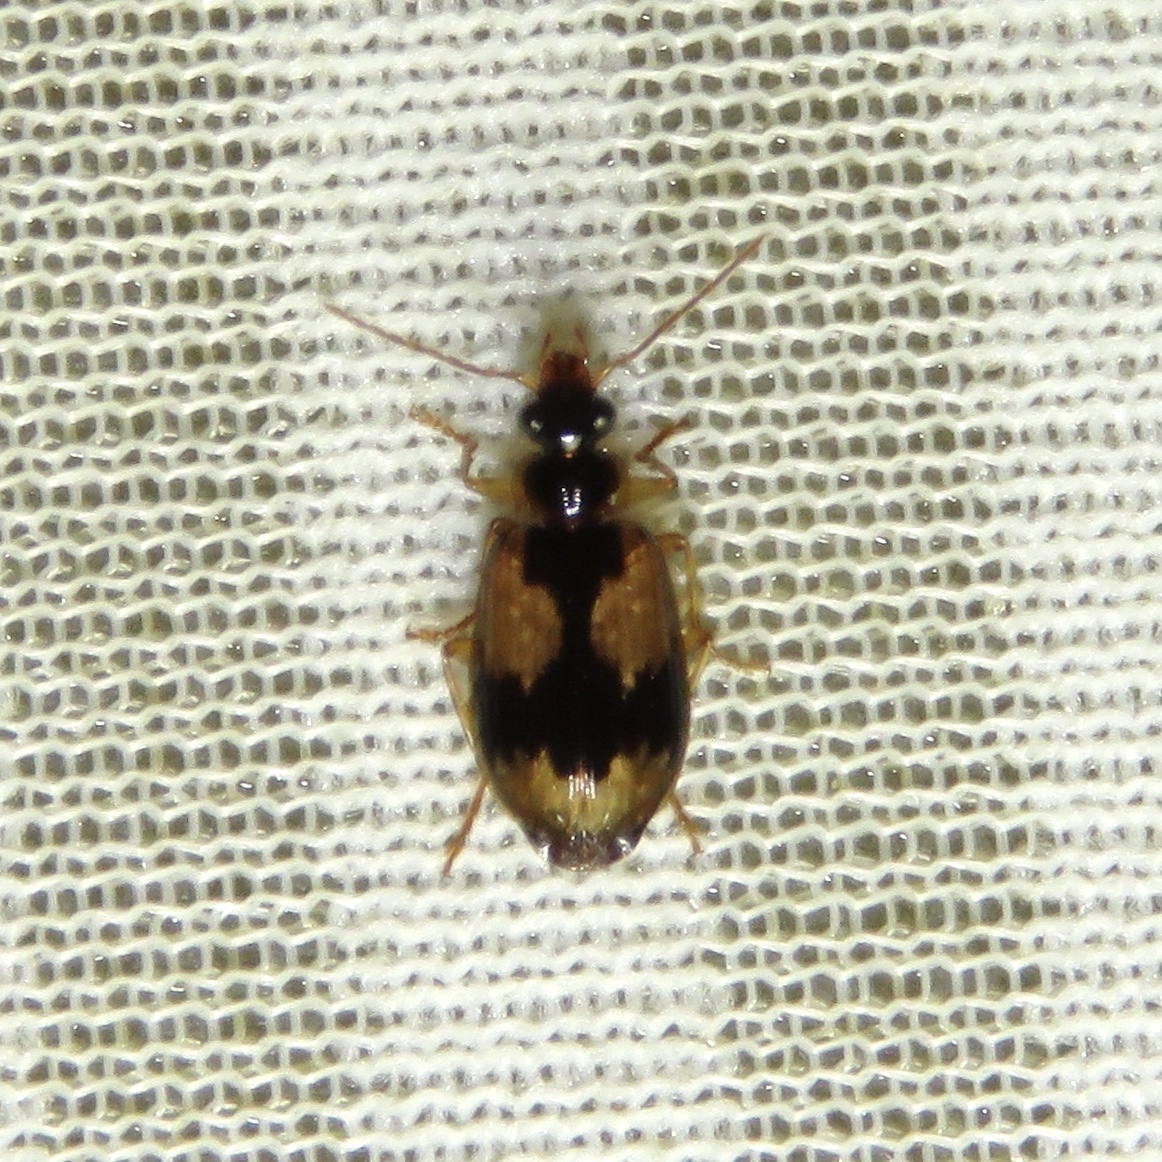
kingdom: Animalia
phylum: Arthropoda
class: Insecta
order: Coleoptera
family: Carabidae
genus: Lebia
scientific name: Lebia fuscata
